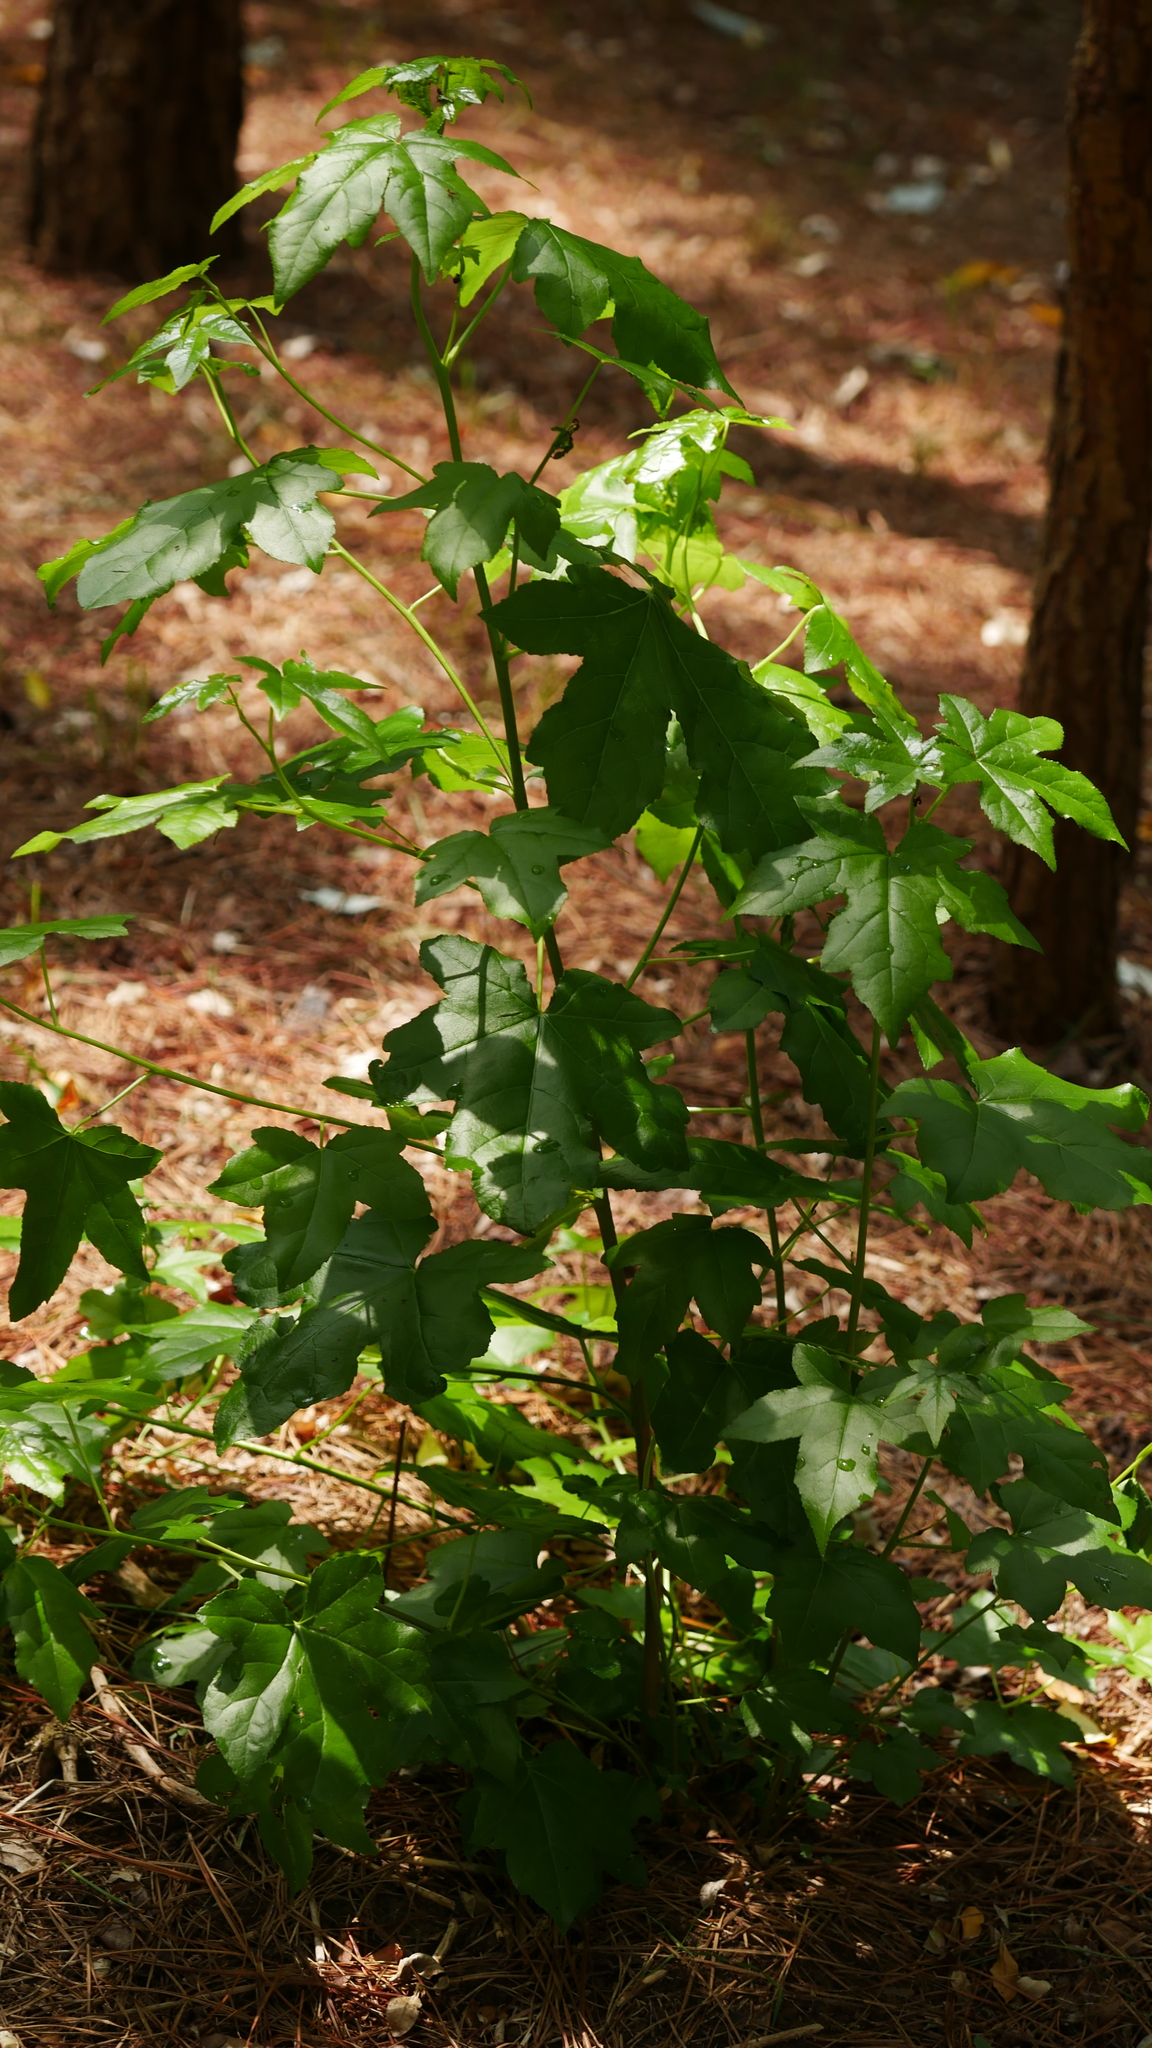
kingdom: Plantae
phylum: Tracheophyta
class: Magnoliopsida
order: Saxifragales
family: Altingiaceae
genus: Liquidambar
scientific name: Liquidambar styraciflua
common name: Sweet gum
